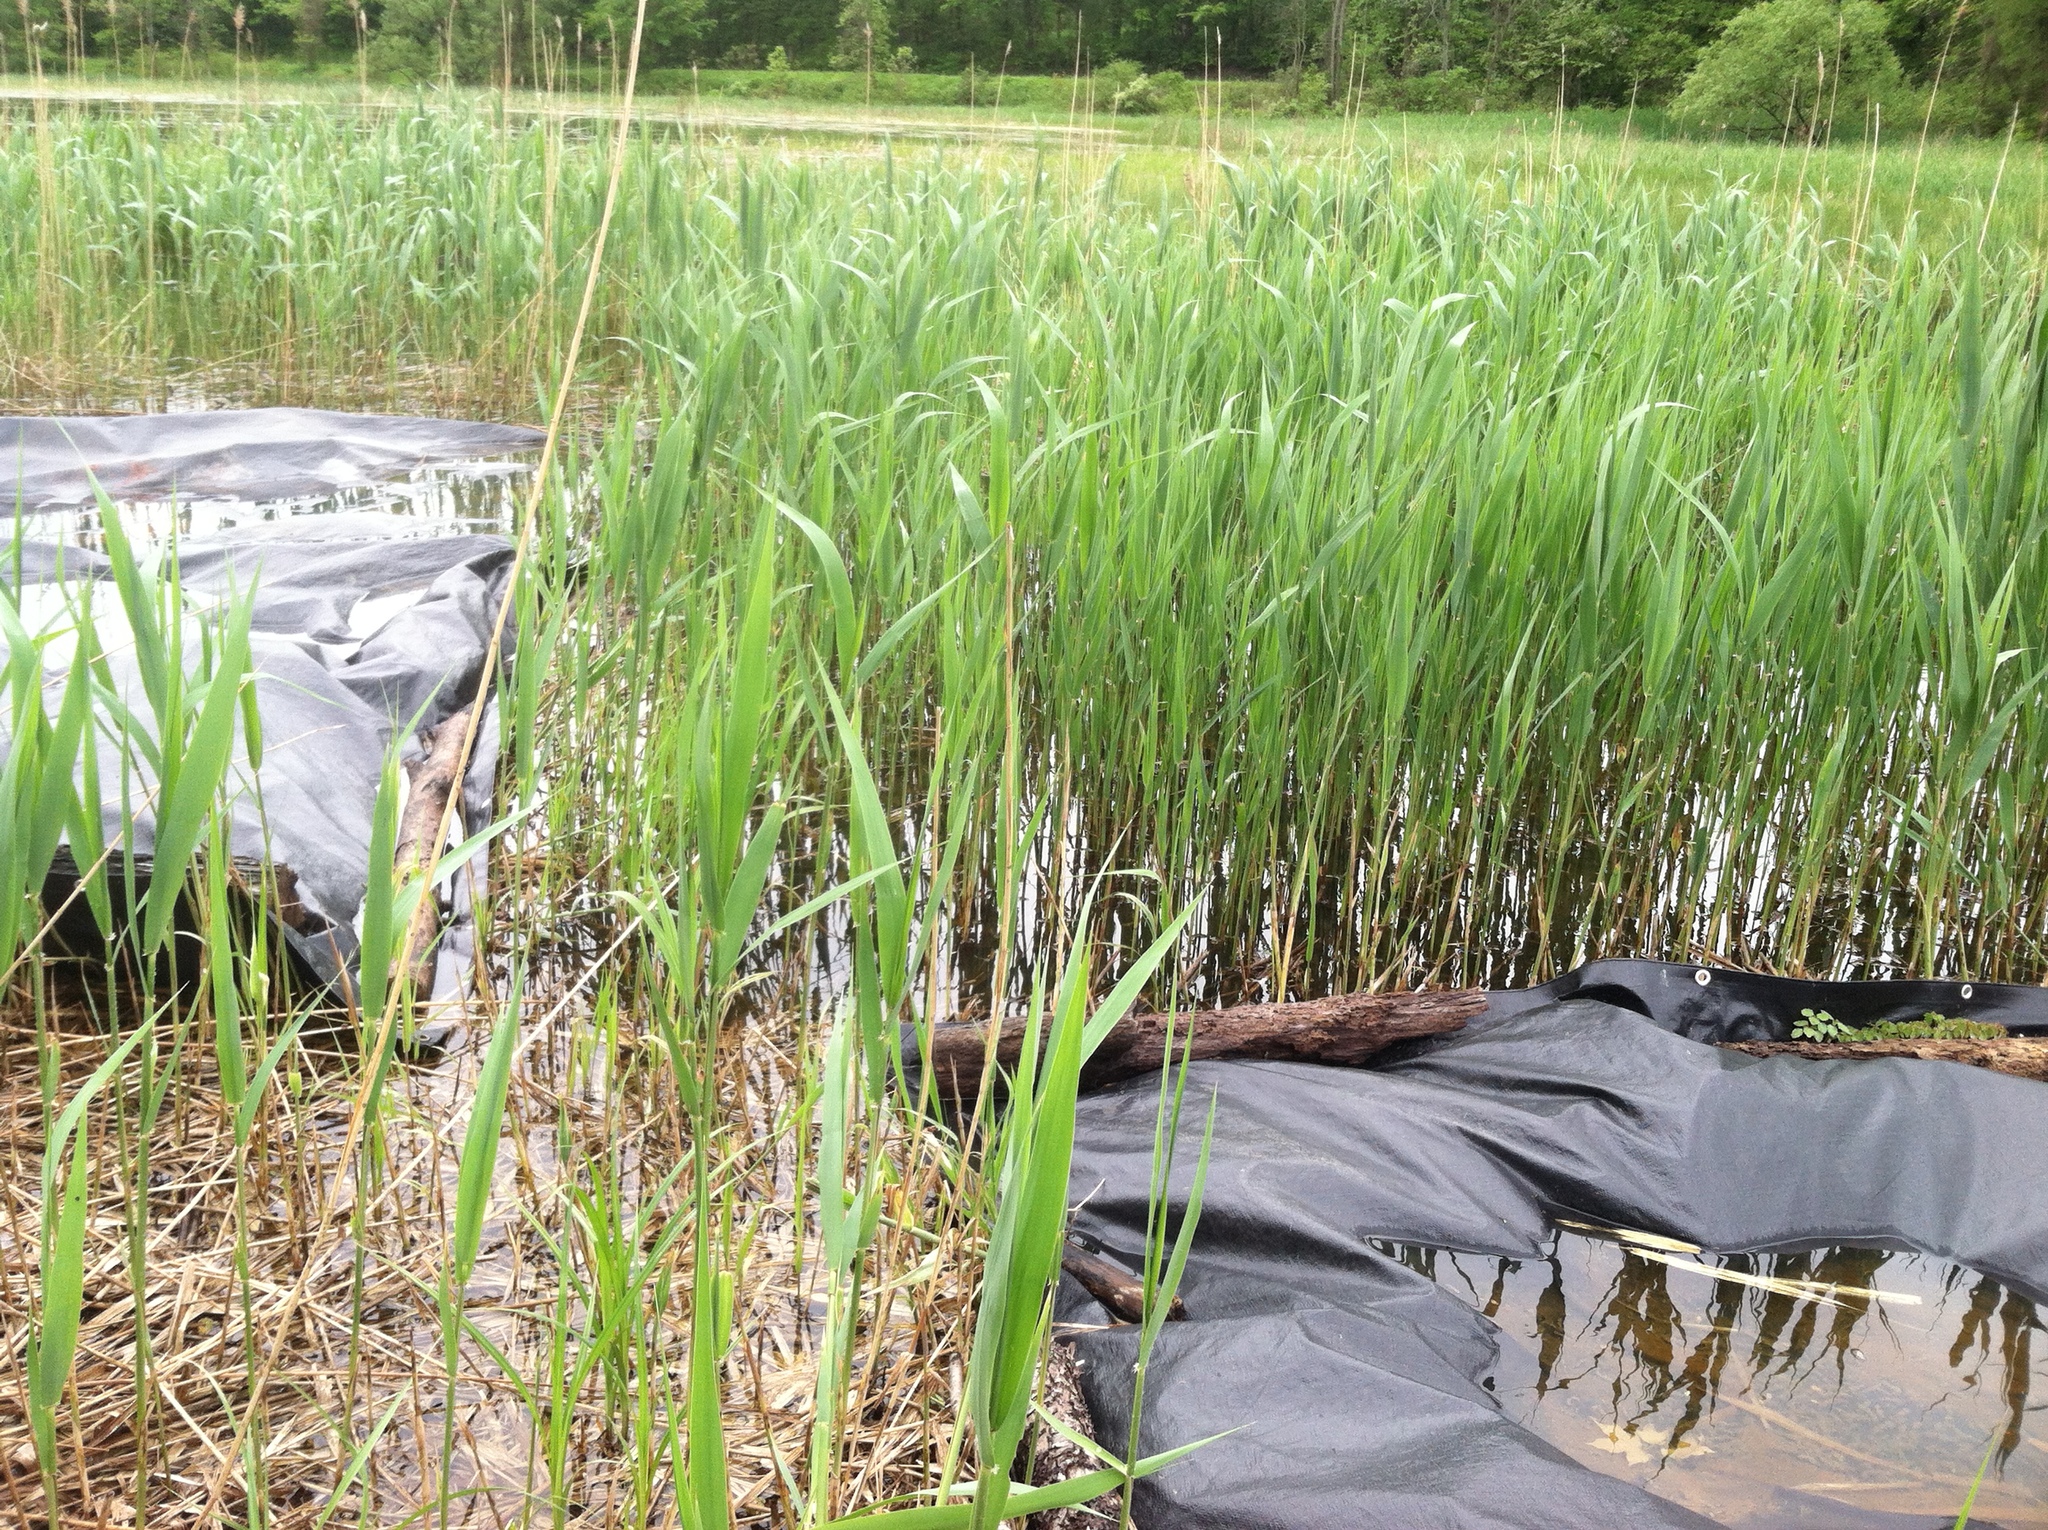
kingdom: Plantae
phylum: Tracheophyta
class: Liliopsida
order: Poales
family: Poaceae
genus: Phragmites
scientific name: Phragmites australis
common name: Common reed
